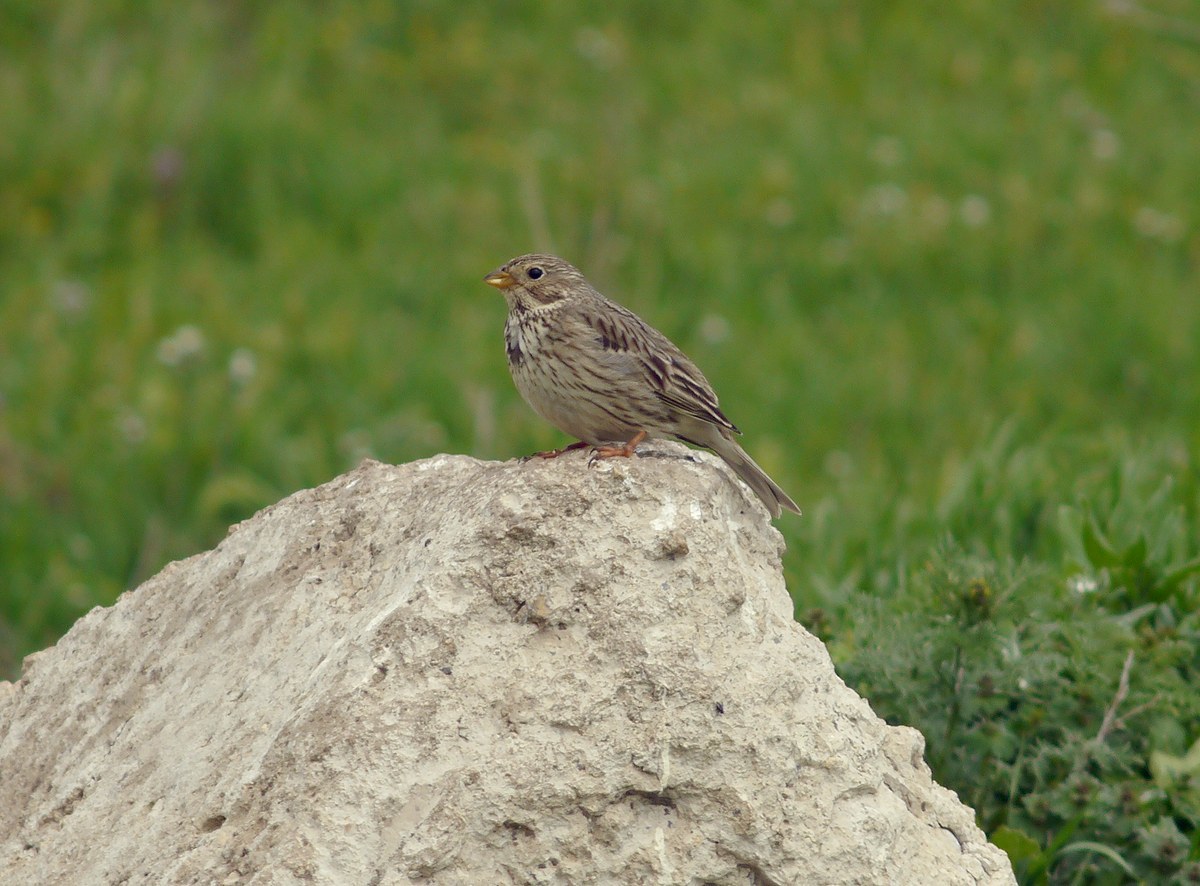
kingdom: Animalia
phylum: Chordata
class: Aves
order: Passeriformes
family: Emberizidae
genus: Emberiza
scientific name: Emberiza calandra
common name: Corn bunting
